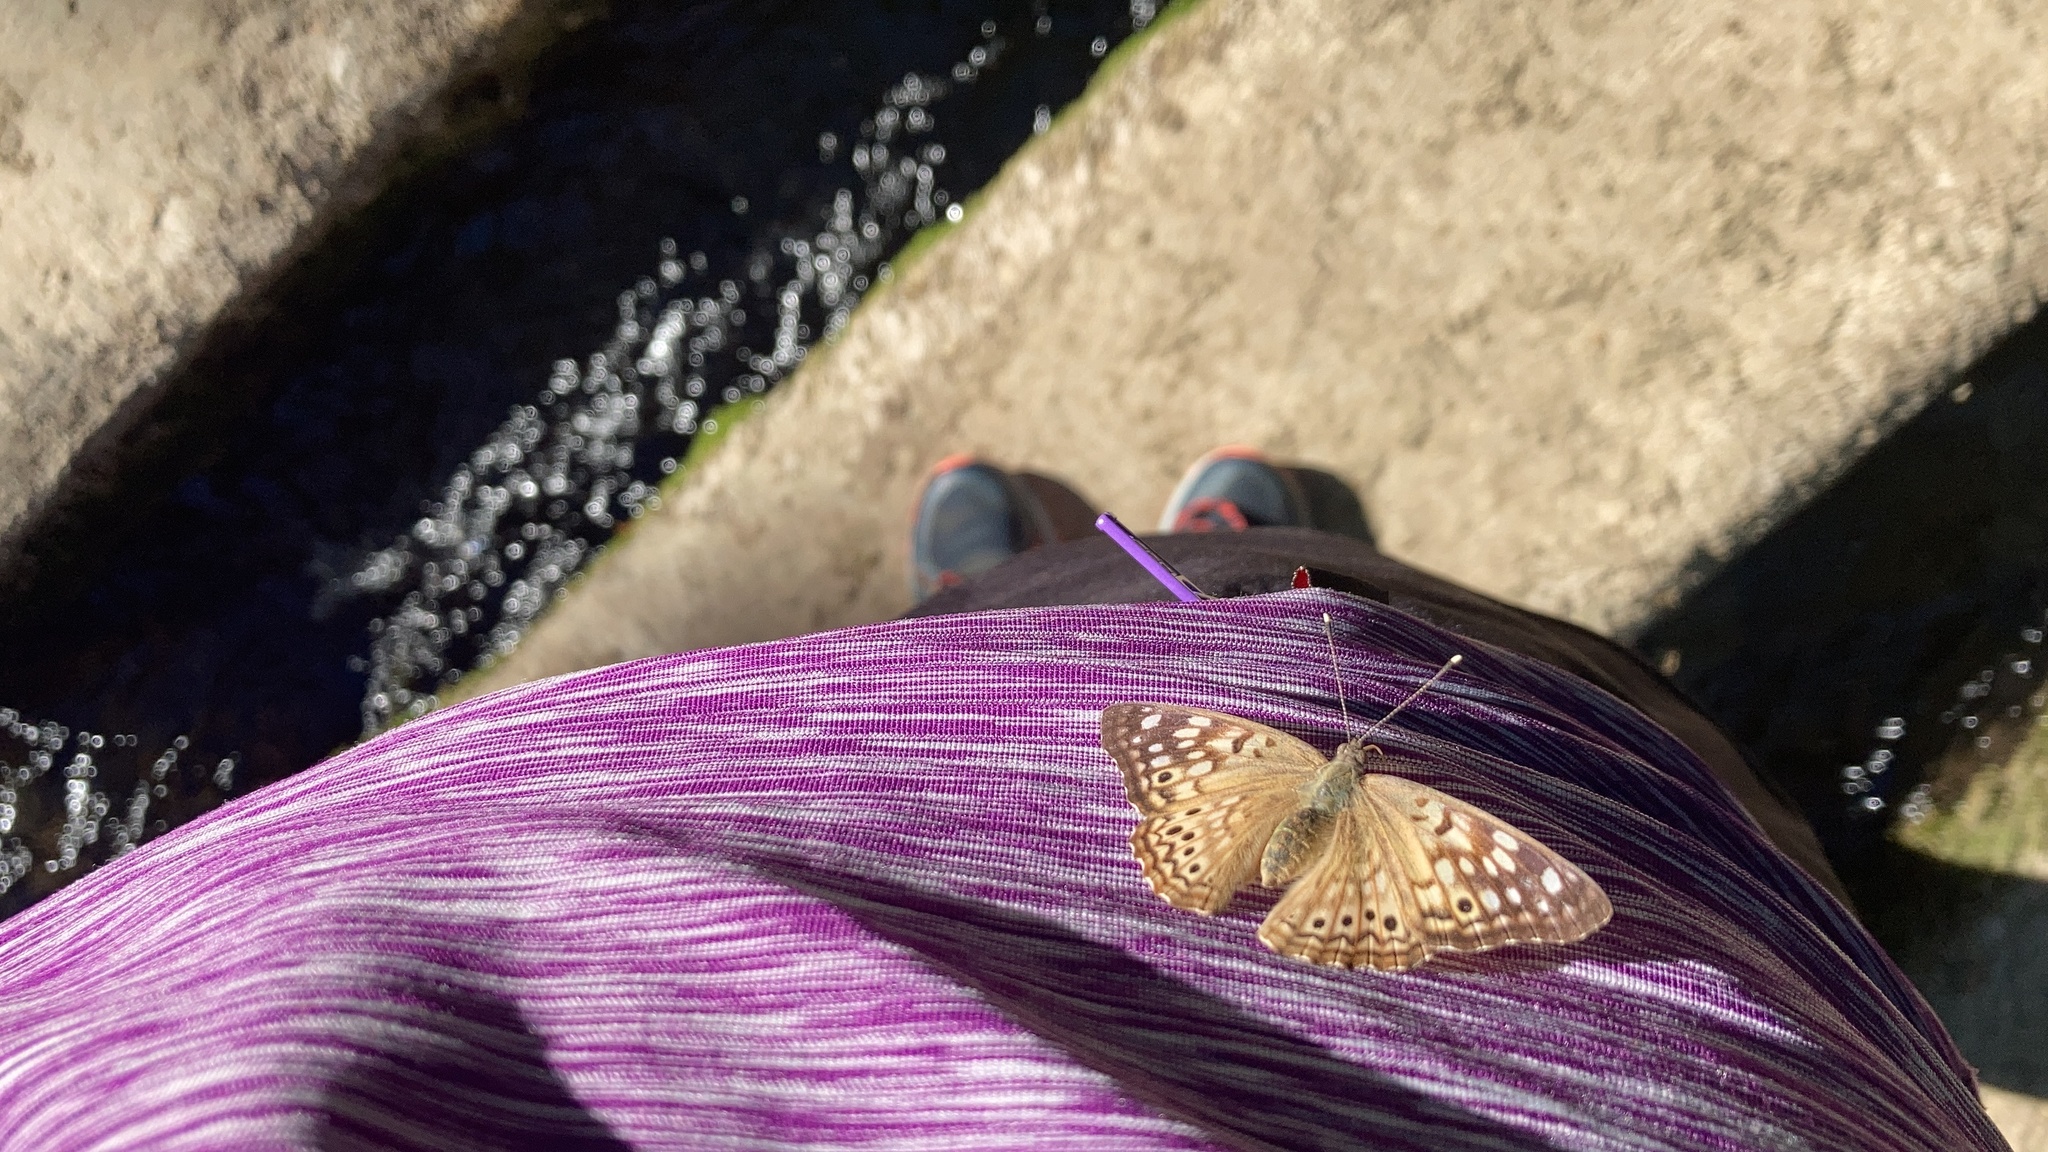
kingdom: Animalia
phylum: Arthropoda
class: Insecta
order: Lepidoptera
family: Nymphalidae
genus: Asterocampa
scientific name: Asterocampa celtis
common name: Hackberry emperor
